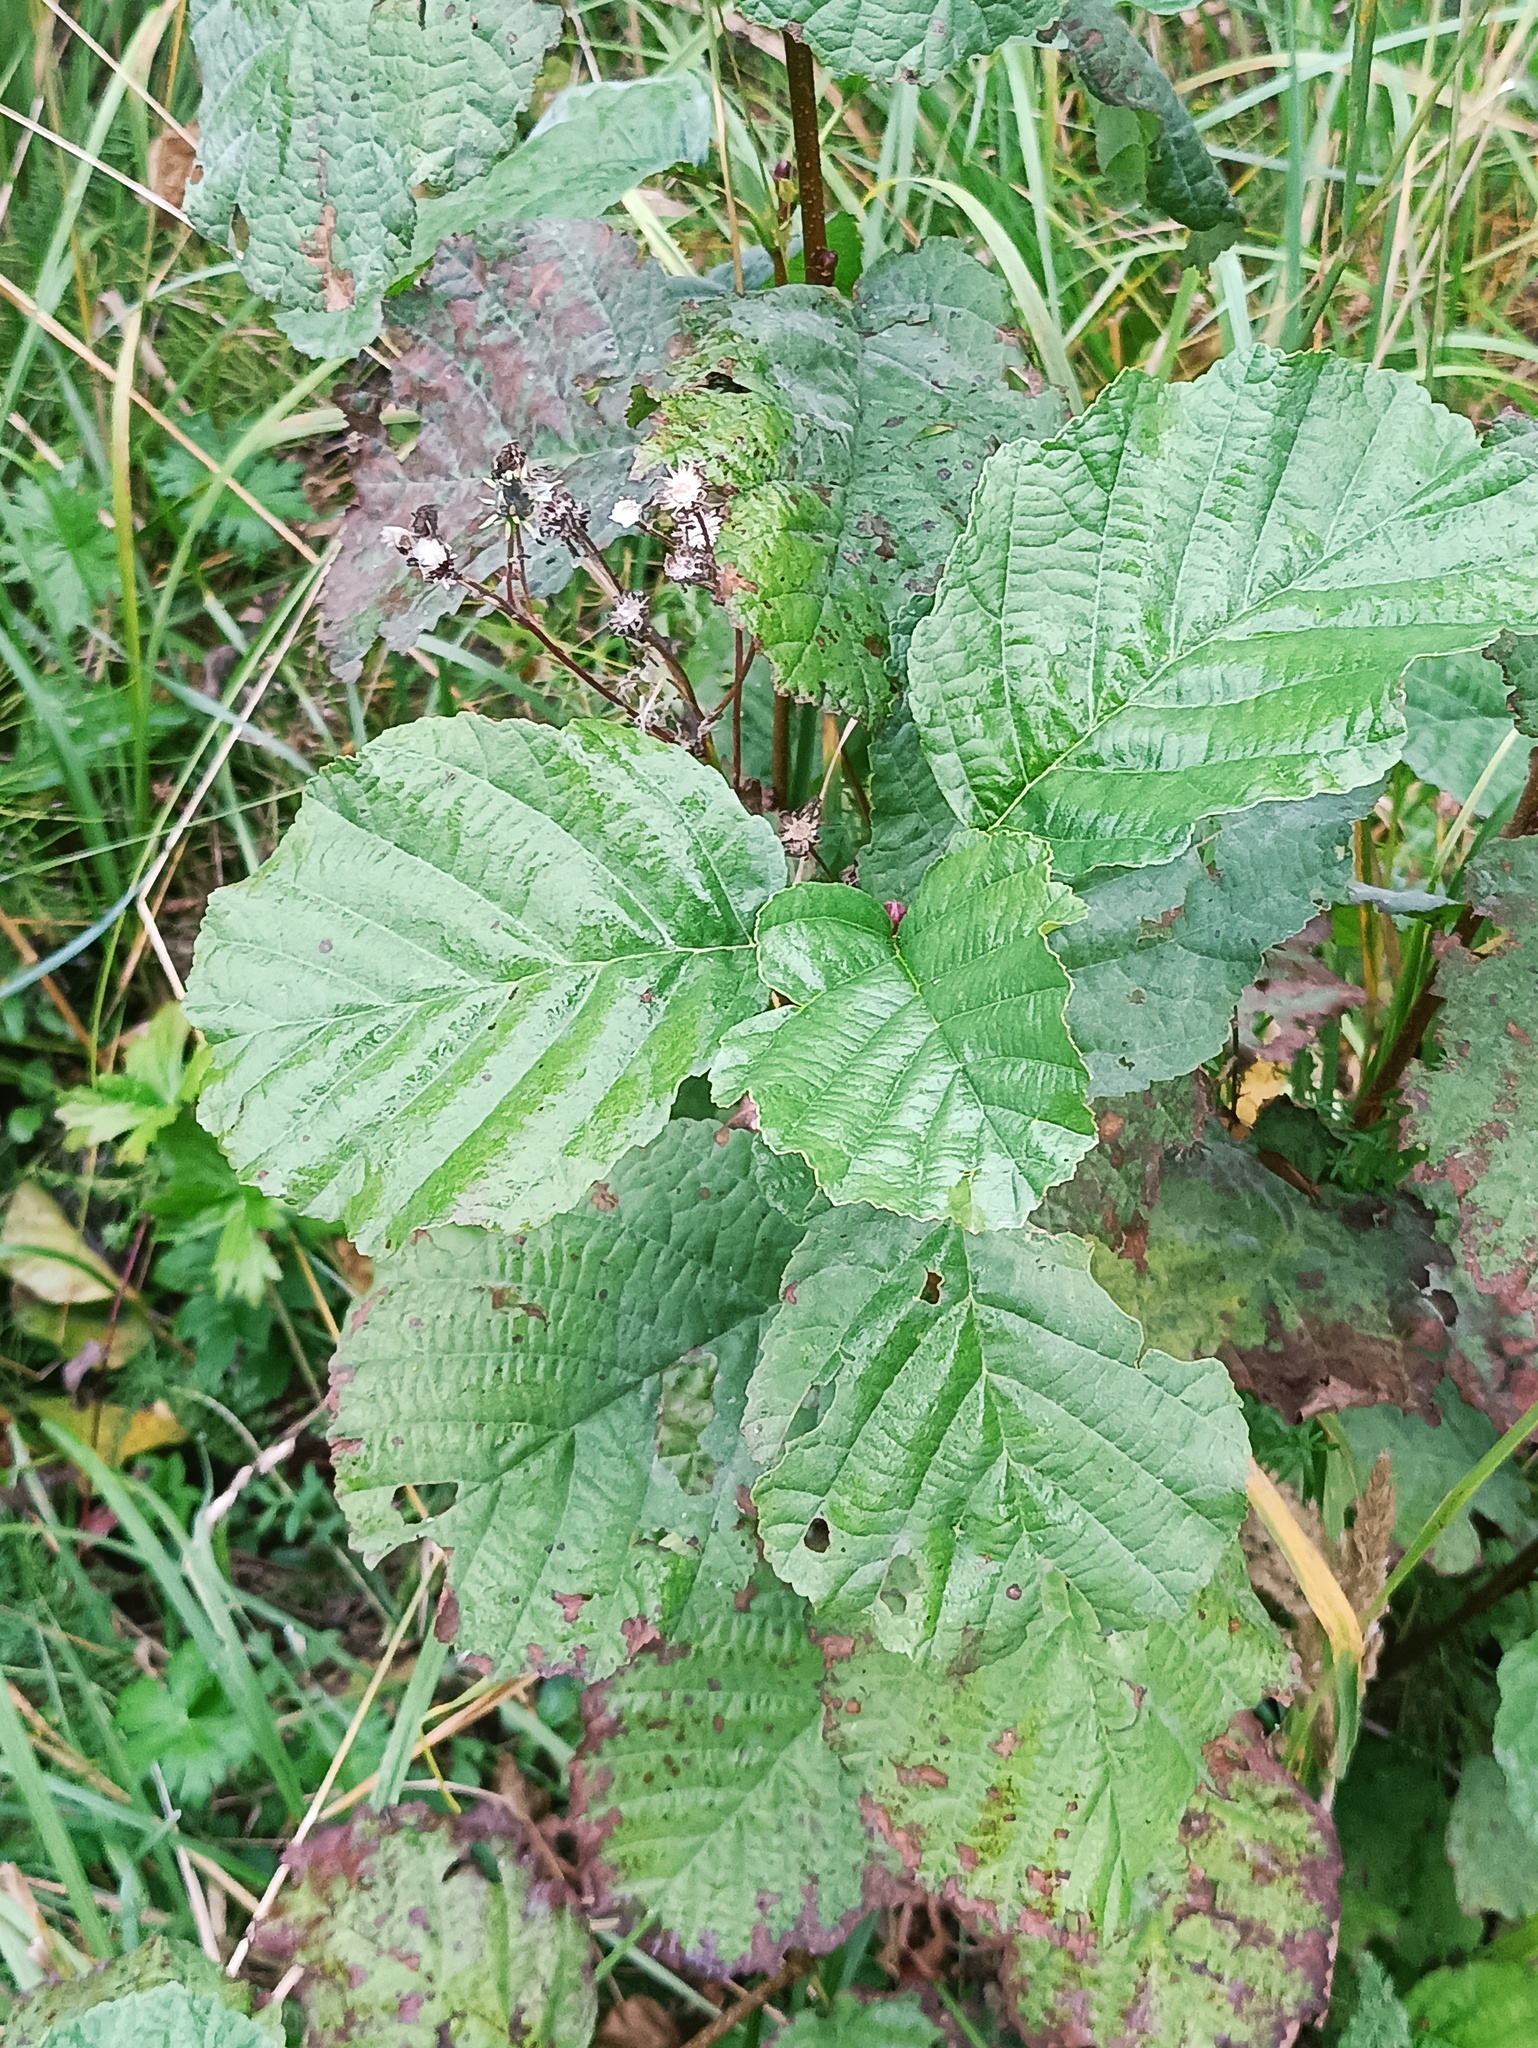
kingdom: Plantae
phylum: Tracheophyta
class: Magnoliopsida
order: Fagales
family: Betulaceae
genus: Alnus
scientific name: Alnus glutinosa
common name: Black alder
